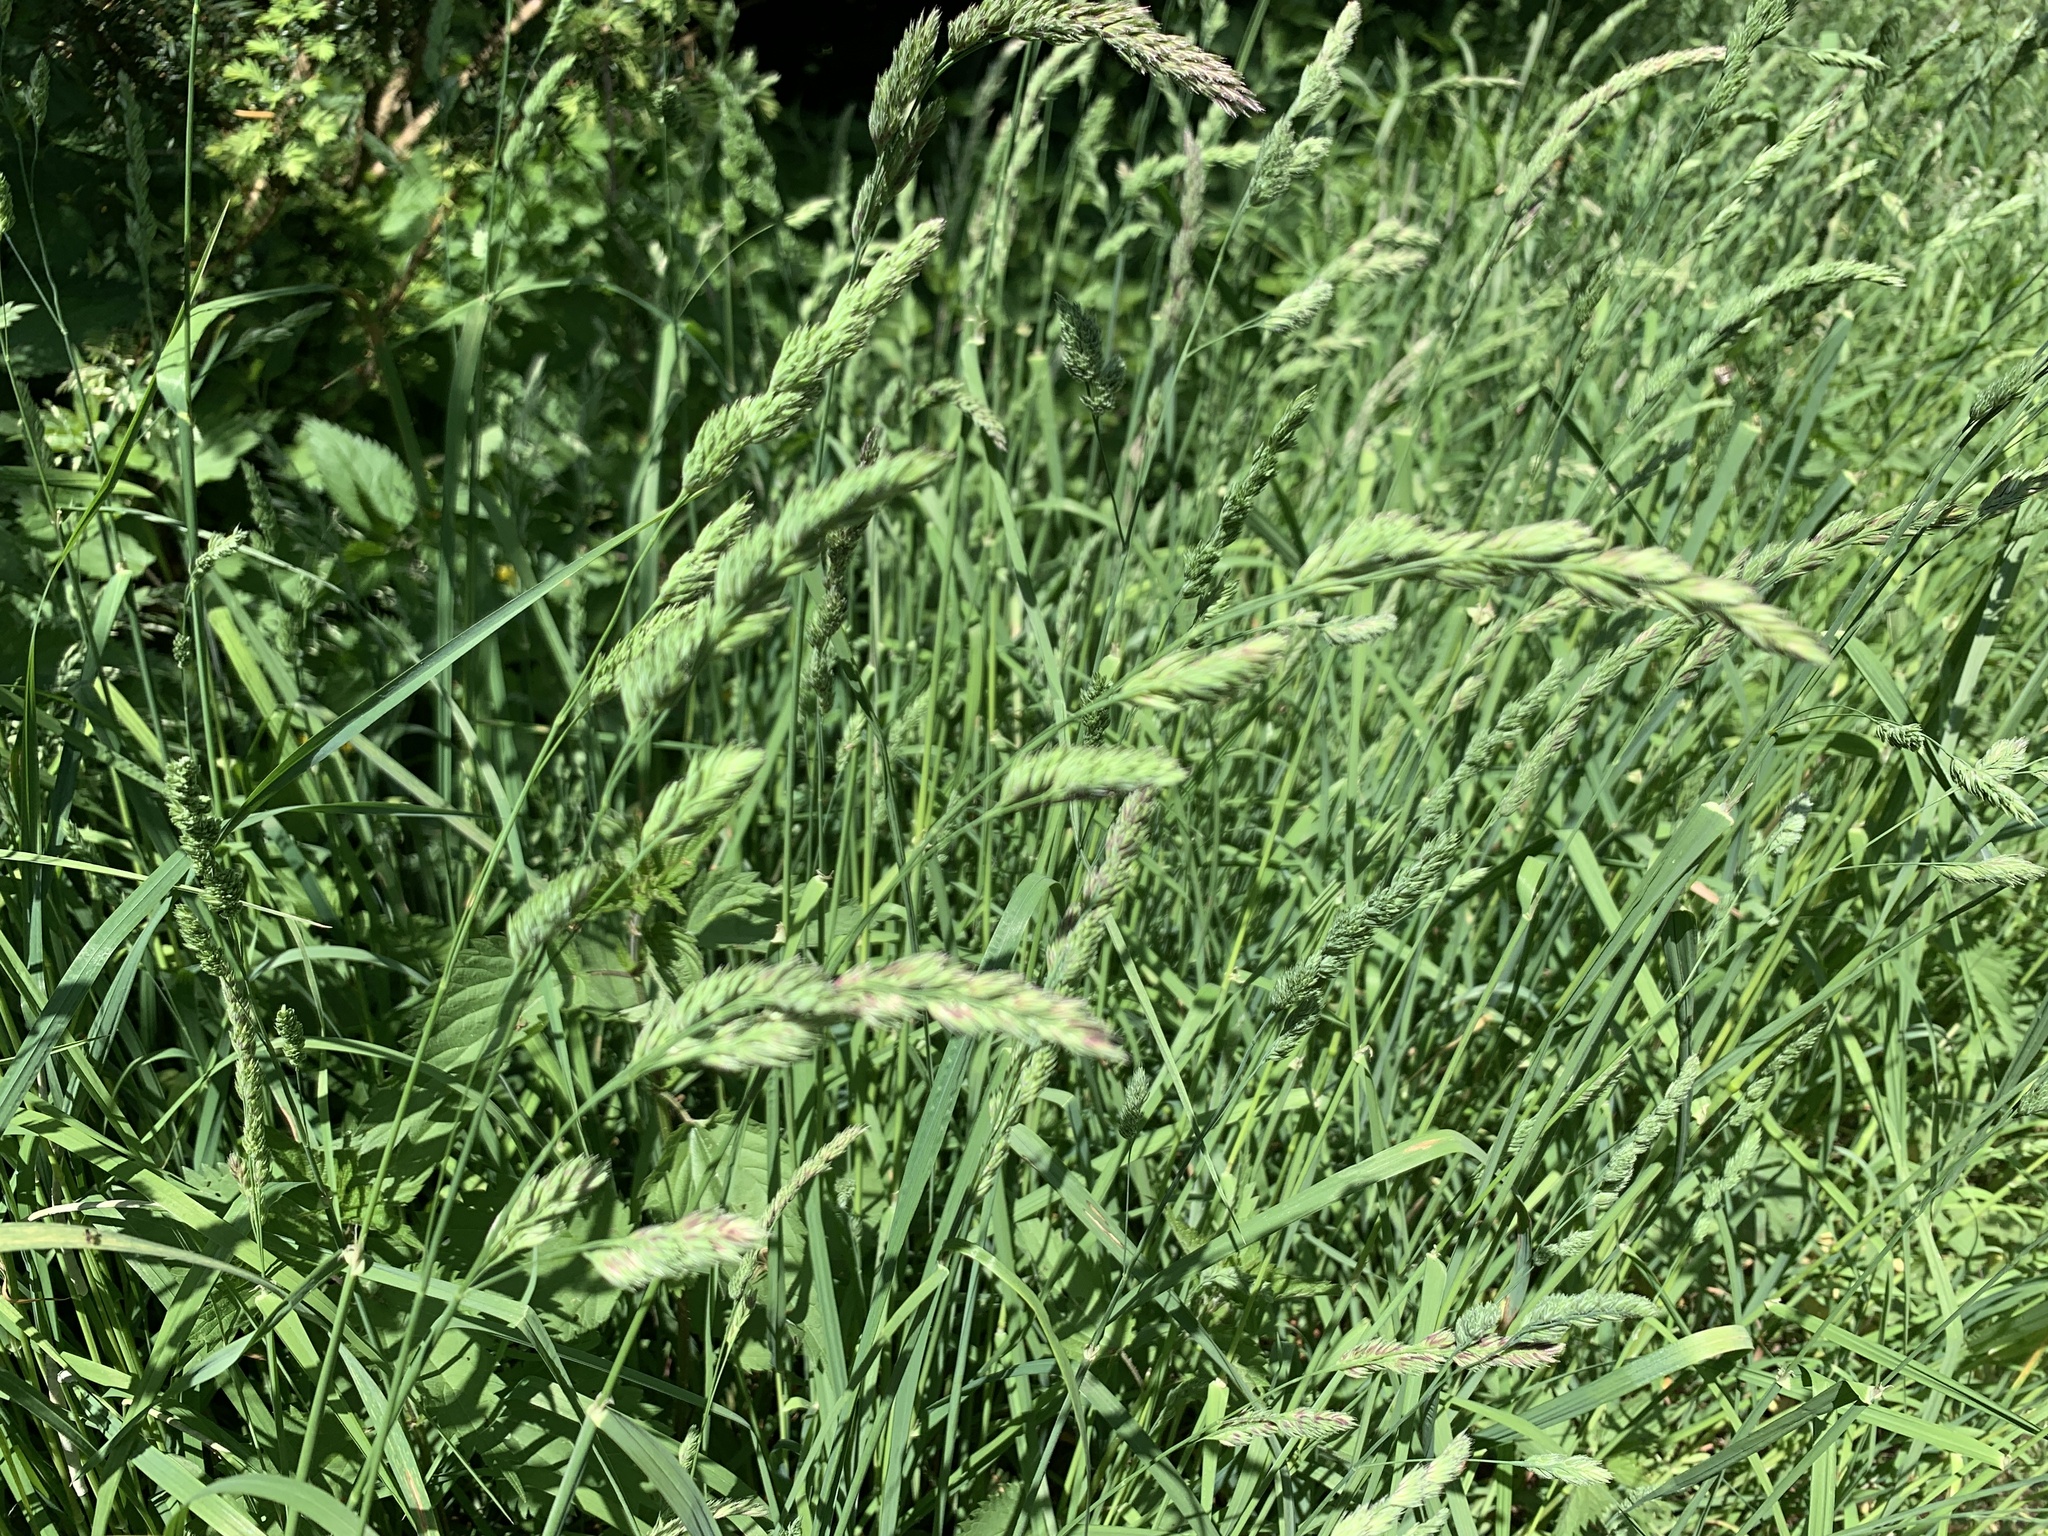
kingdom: Plantae
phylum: Tracheophyta
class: Liliopsida
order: Poales
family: Poaceae
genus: Dactylis
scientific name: Dactylis glomerata
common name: Orchardgrass
